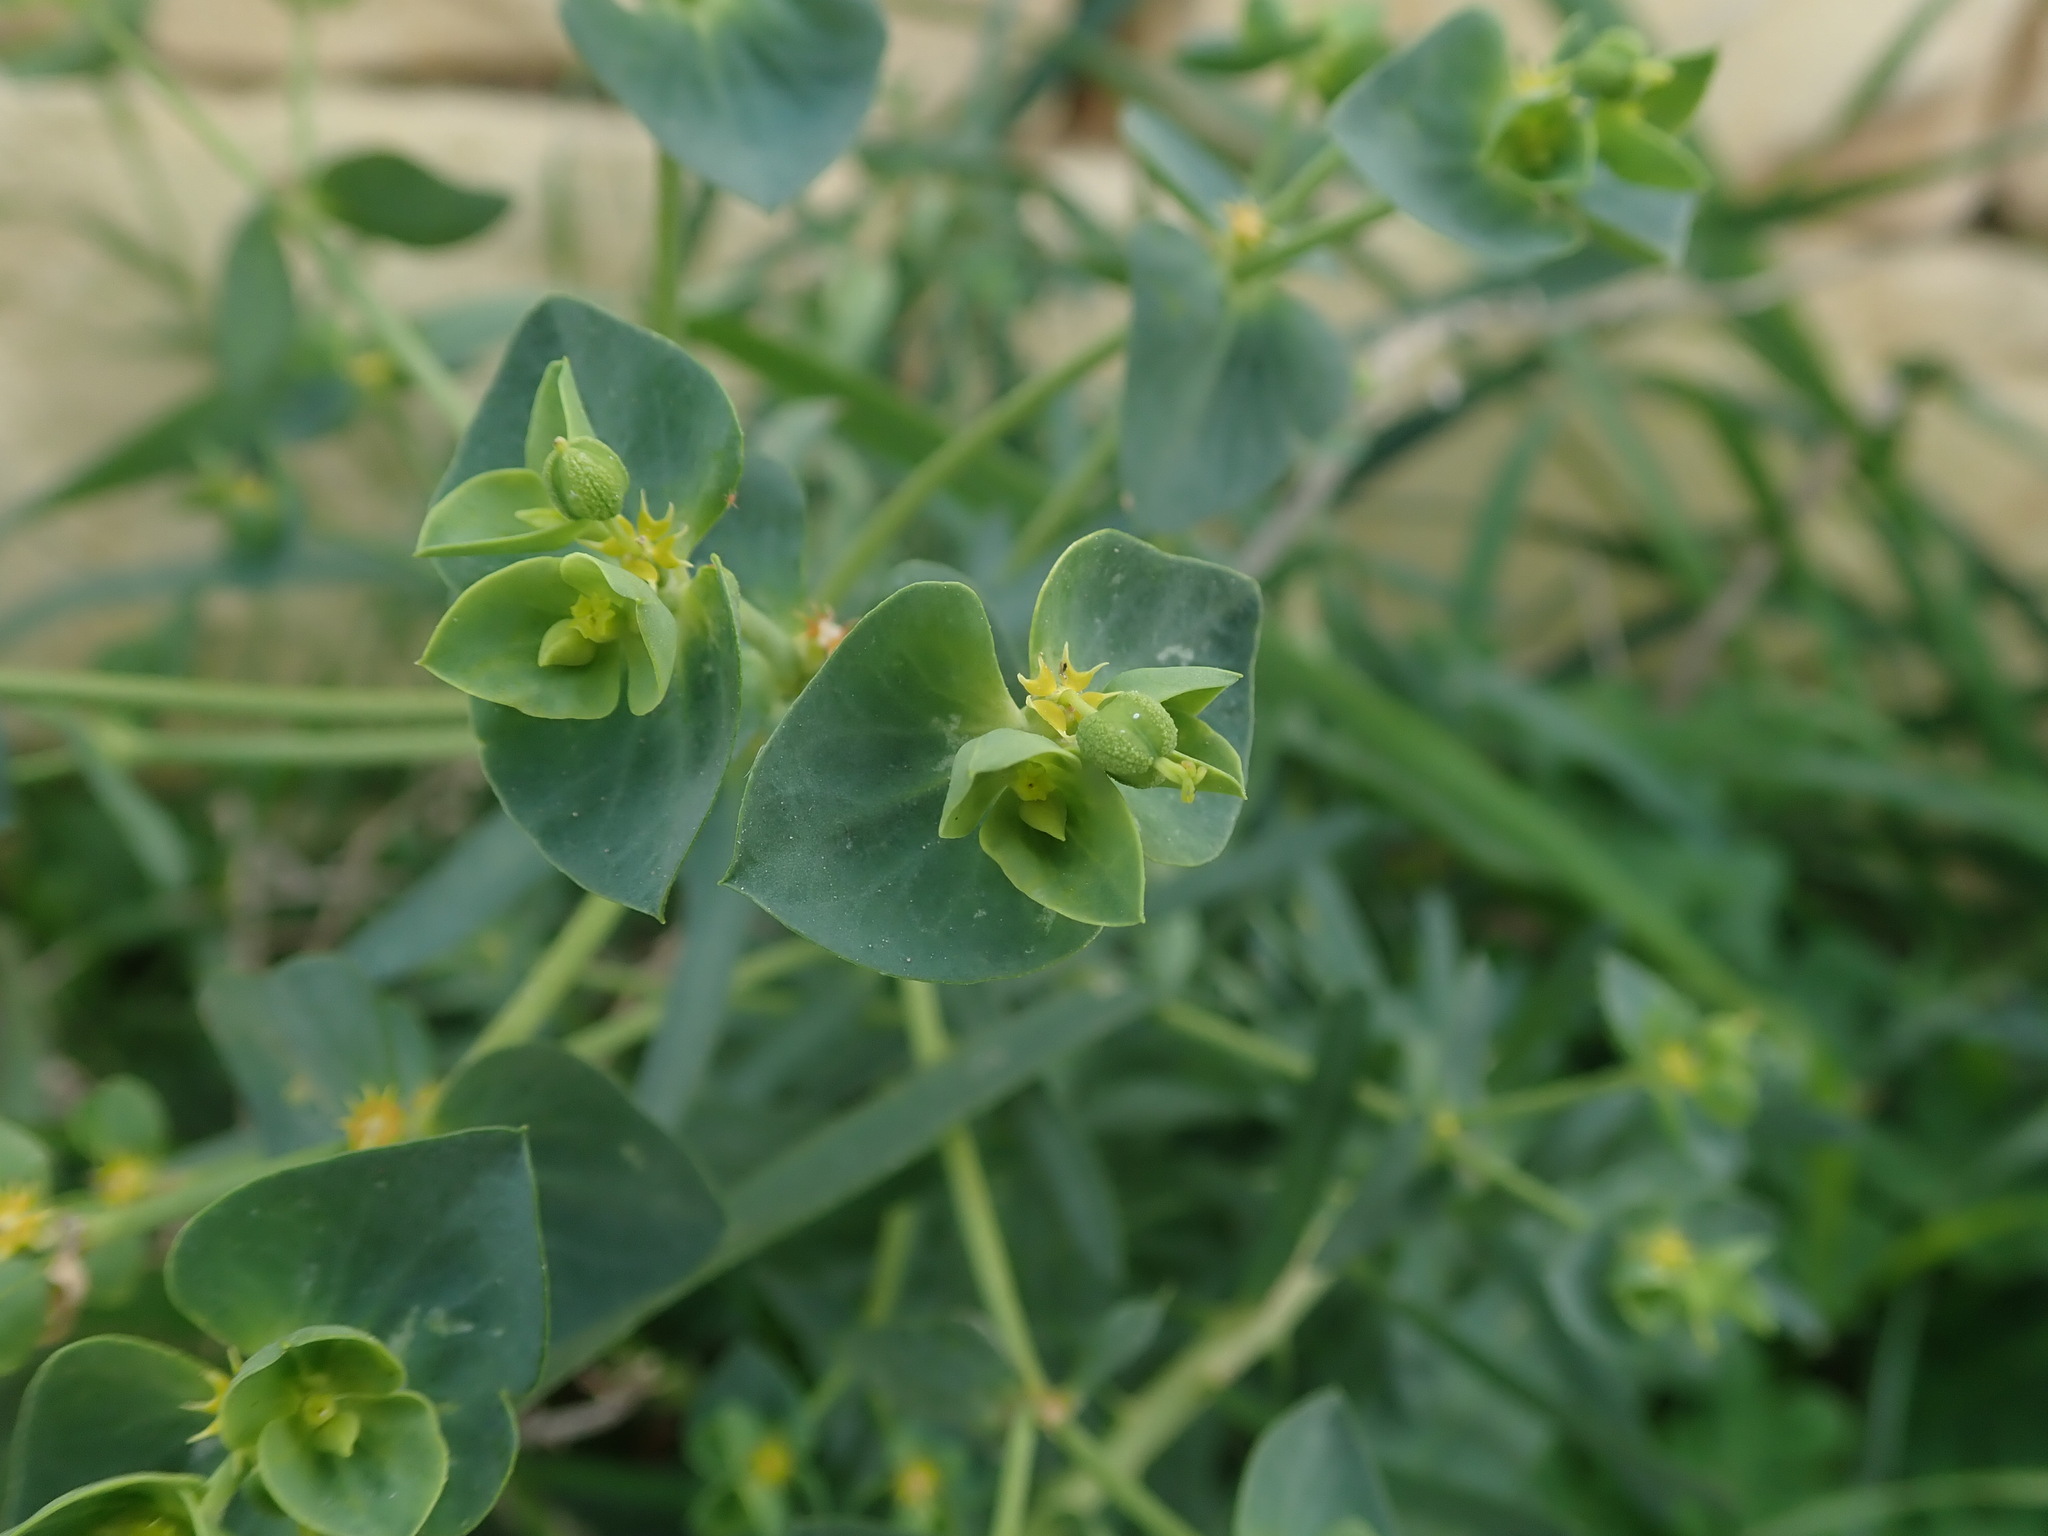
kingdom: Plantae
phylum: Tracheophyta
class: Magnoliopsida
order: Malpighiales
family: Euphorbiaceae
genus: Euphorbia
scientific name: Euphorbia segetalis
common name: Corn spurge
